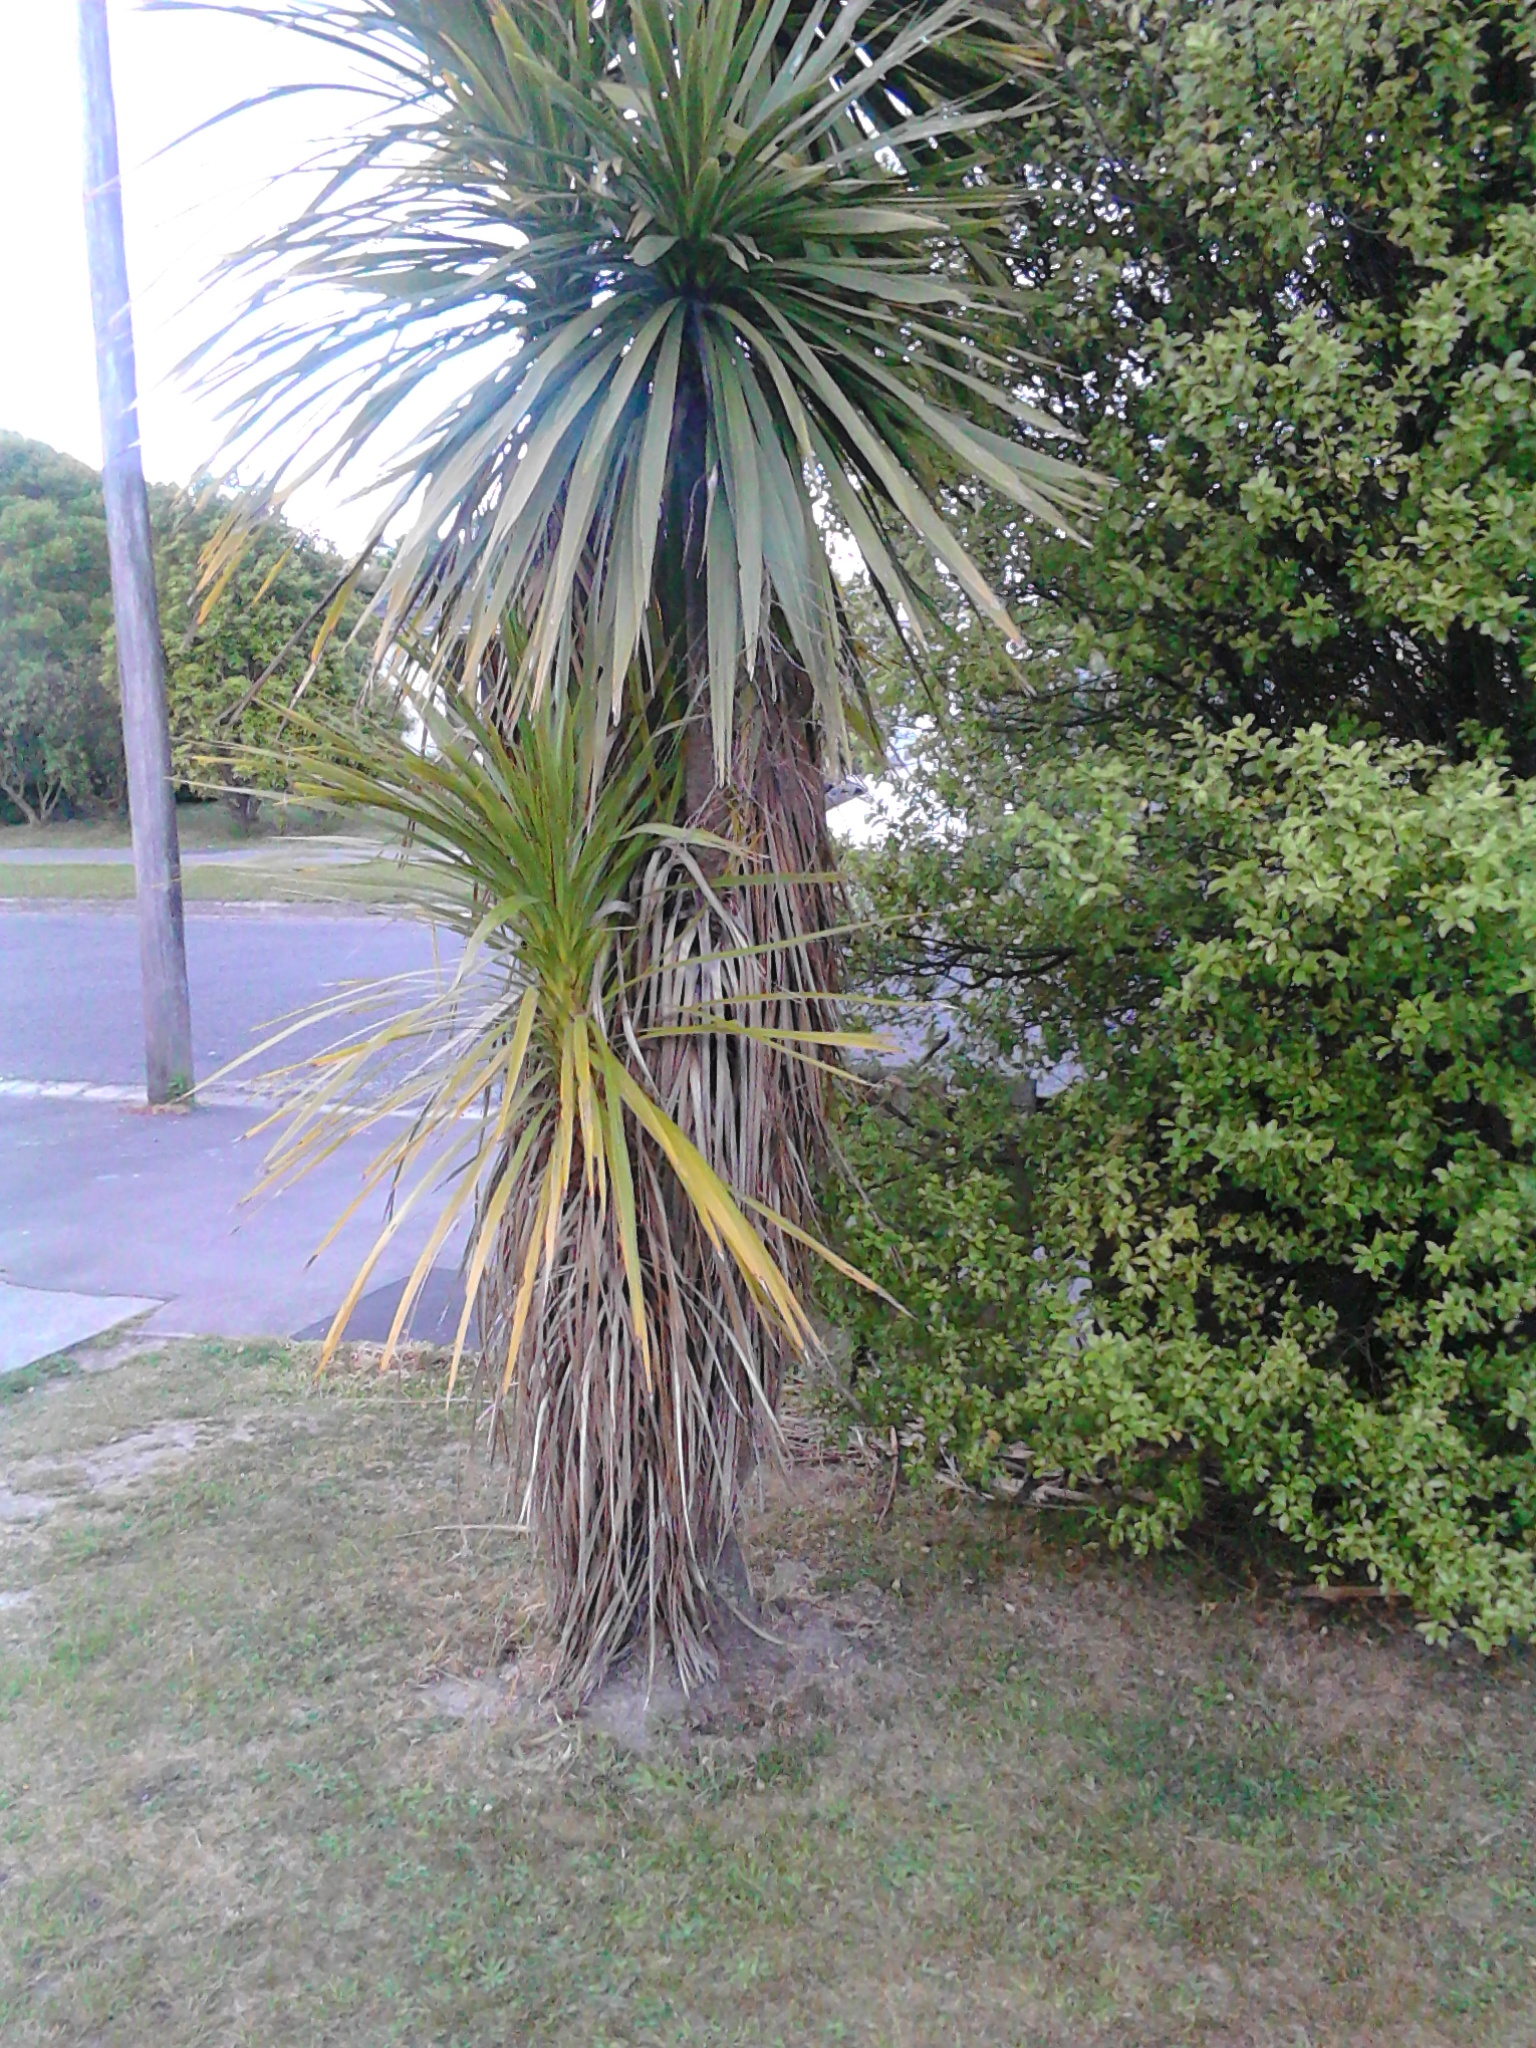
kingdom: Plantae
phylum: Tracheophyta
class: Liliopsida
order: Asparagales
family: Asparagaceae
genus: Cordyline
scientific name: Cordyline australis
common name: Cabbage-palm
